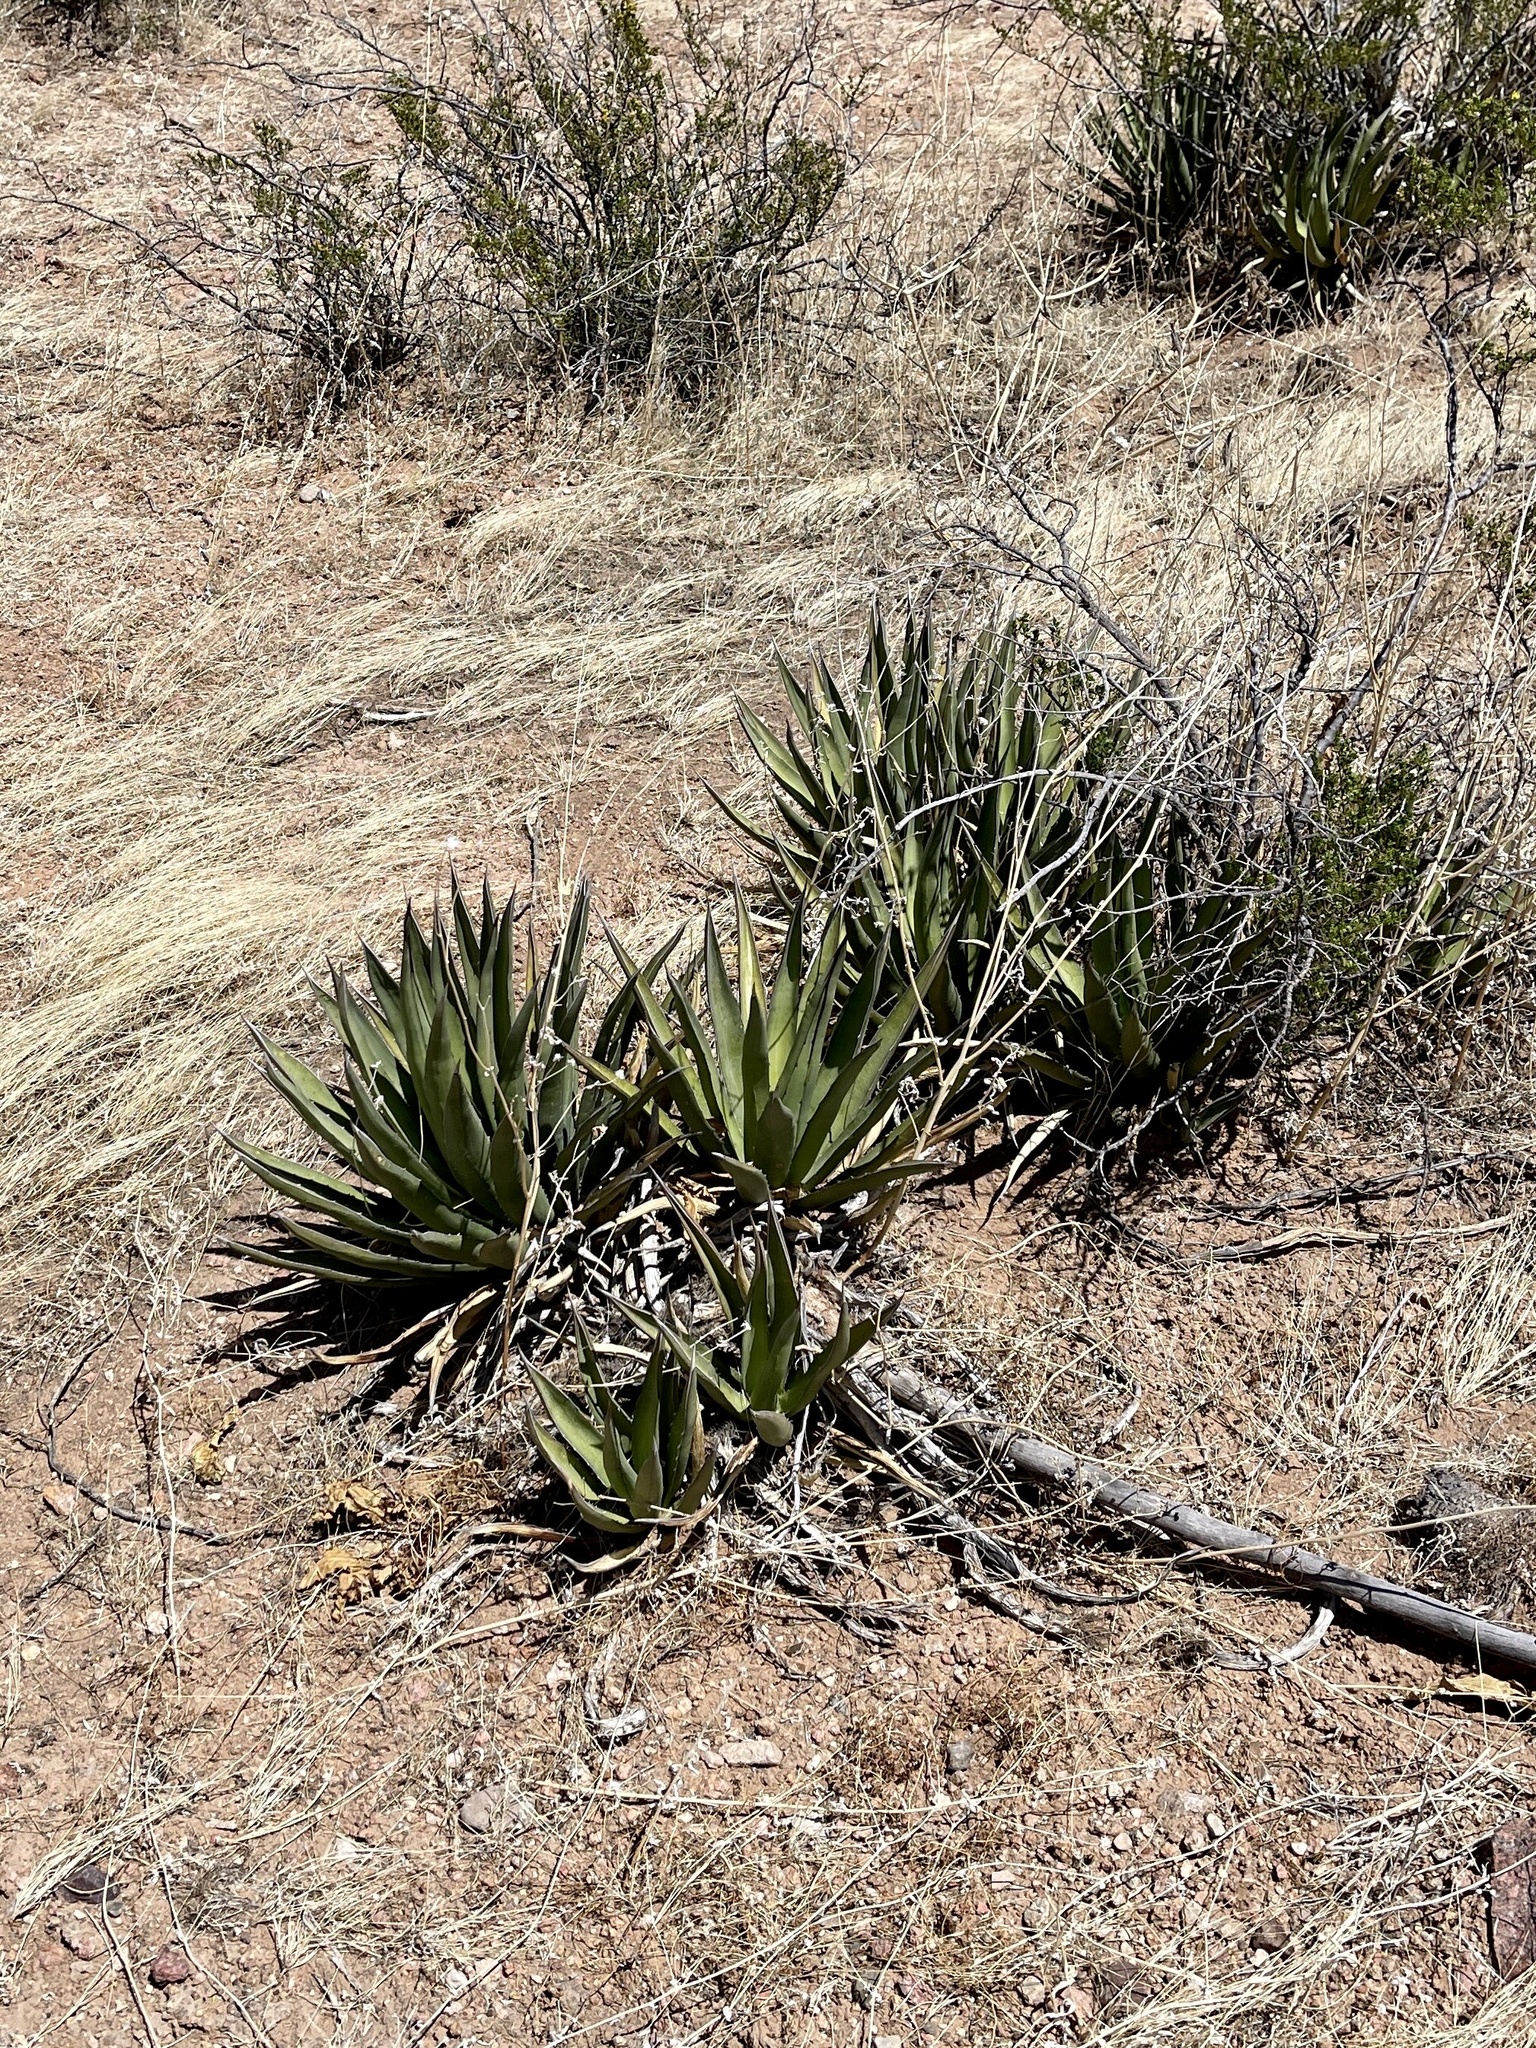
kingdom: Plantae
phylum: Tracheophyta
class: Liliopsida
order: Asparagales
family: Asparagaceae
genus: Agave
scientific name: Agave lechuguilla
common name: Lecheguilla agave
